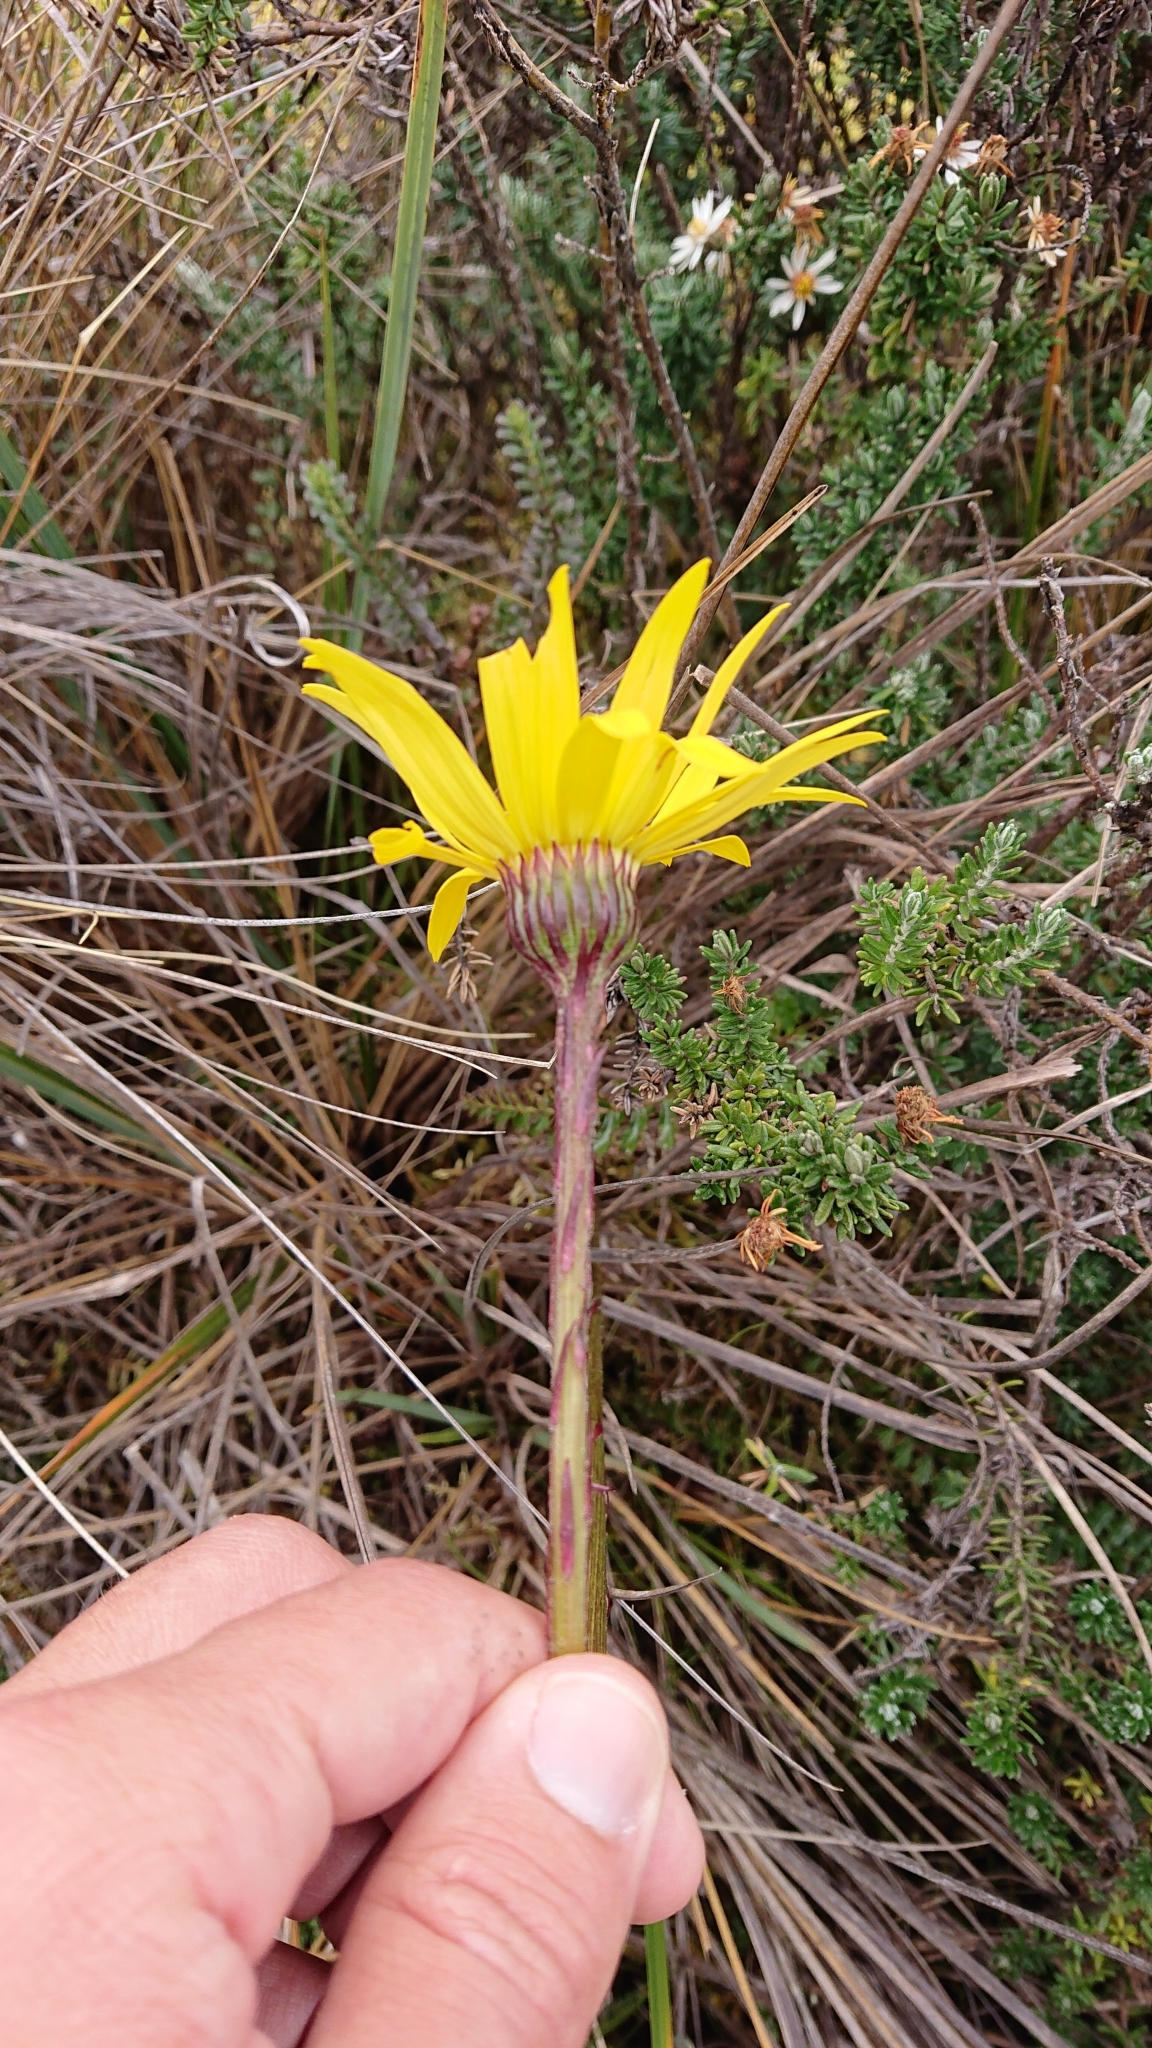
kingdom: Plantae
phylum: Tracheophyta
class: Magnoliopsida
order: Asterales
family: Asteraceae
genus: Dorobaea
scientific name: Dorobaea pimpinellifolia
